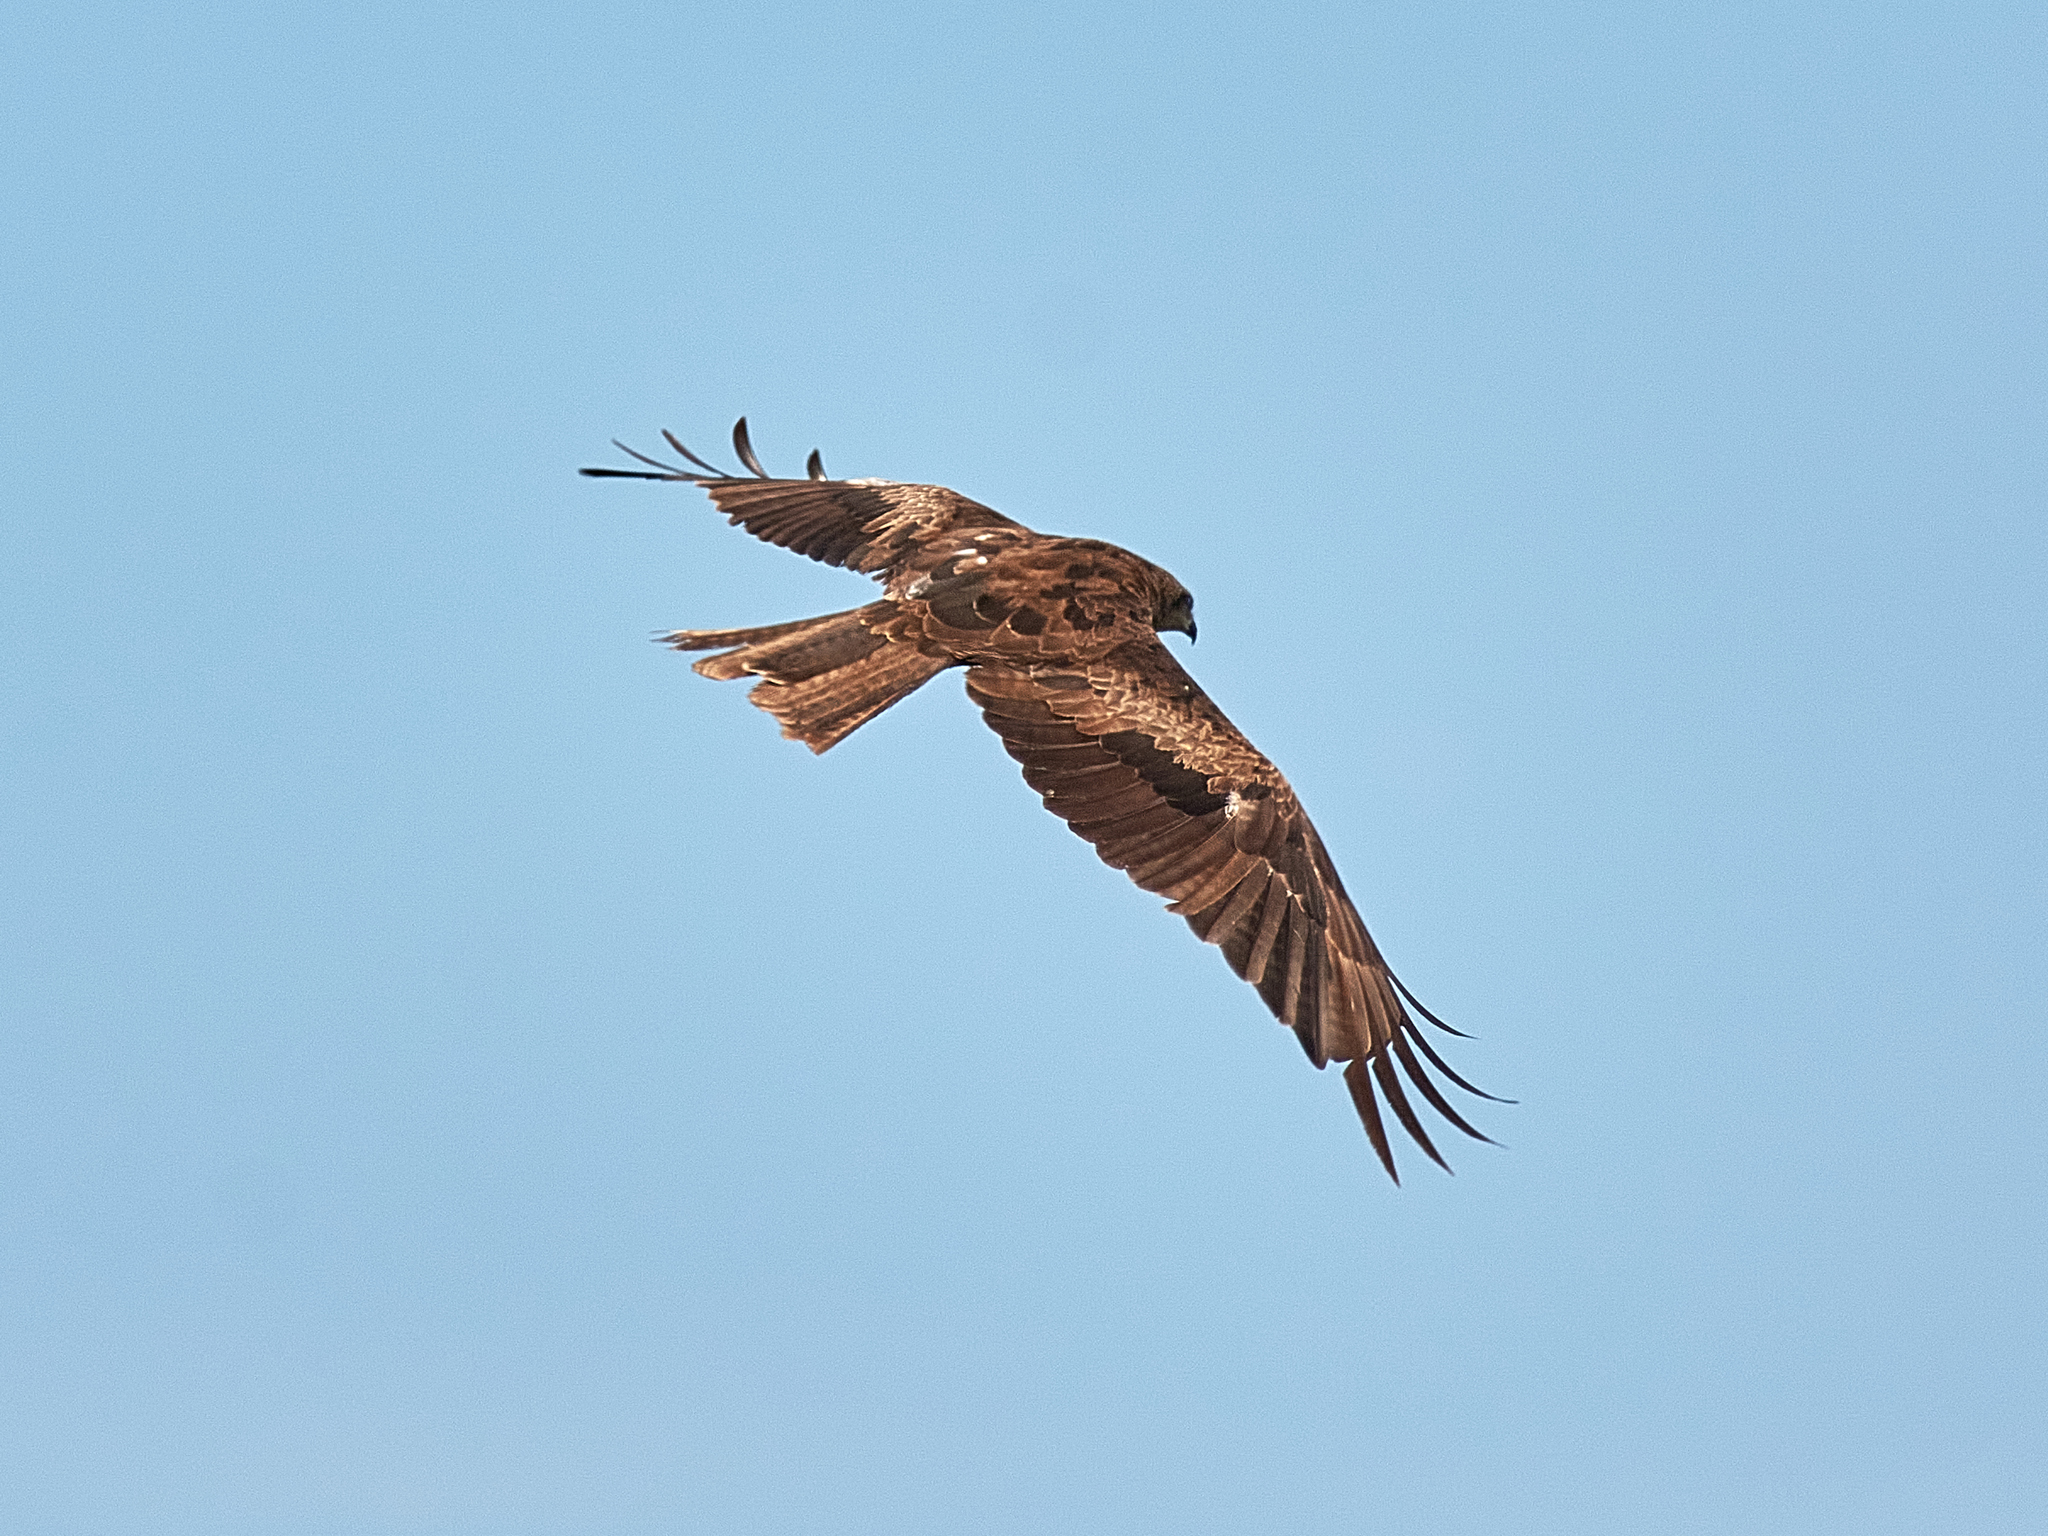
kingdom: Animalia
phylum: Chordata
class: Aves
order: Accipitriformes
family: Accipitridae
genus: Milvus
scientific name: Milvus migrans
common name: Black kite
